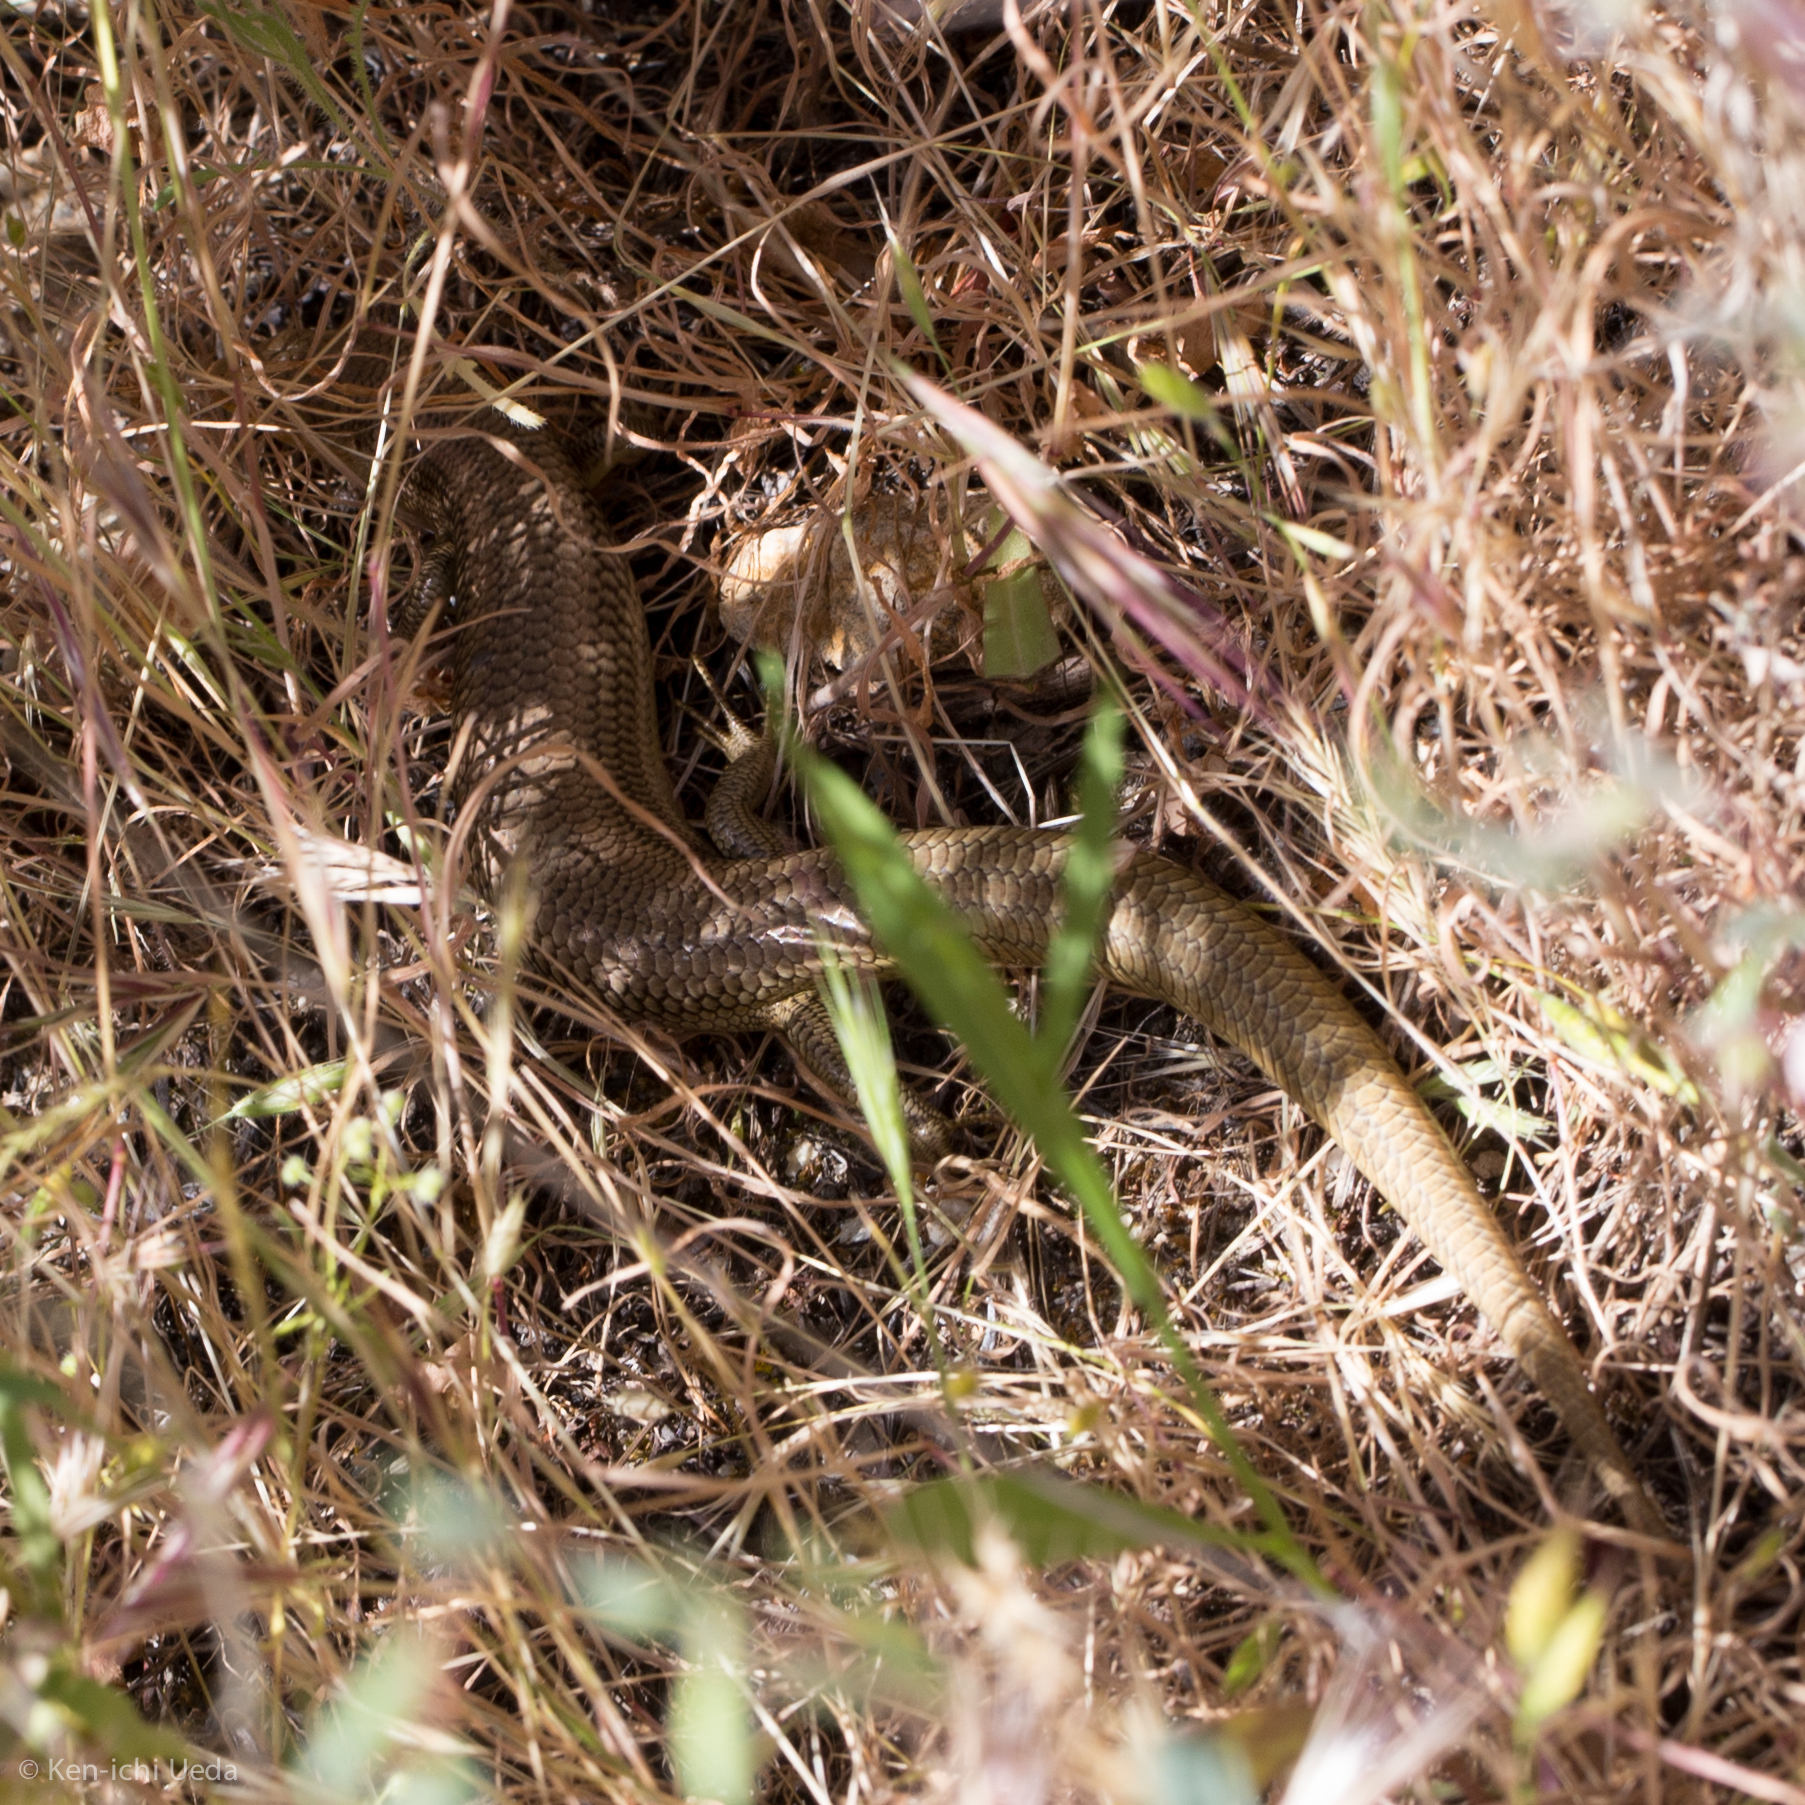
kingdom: Animalia
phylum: Chordata
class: Squamata
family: Scincidae
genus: Plestiodon
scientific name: Plestiodon gilberti
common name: Gilbert's skink
